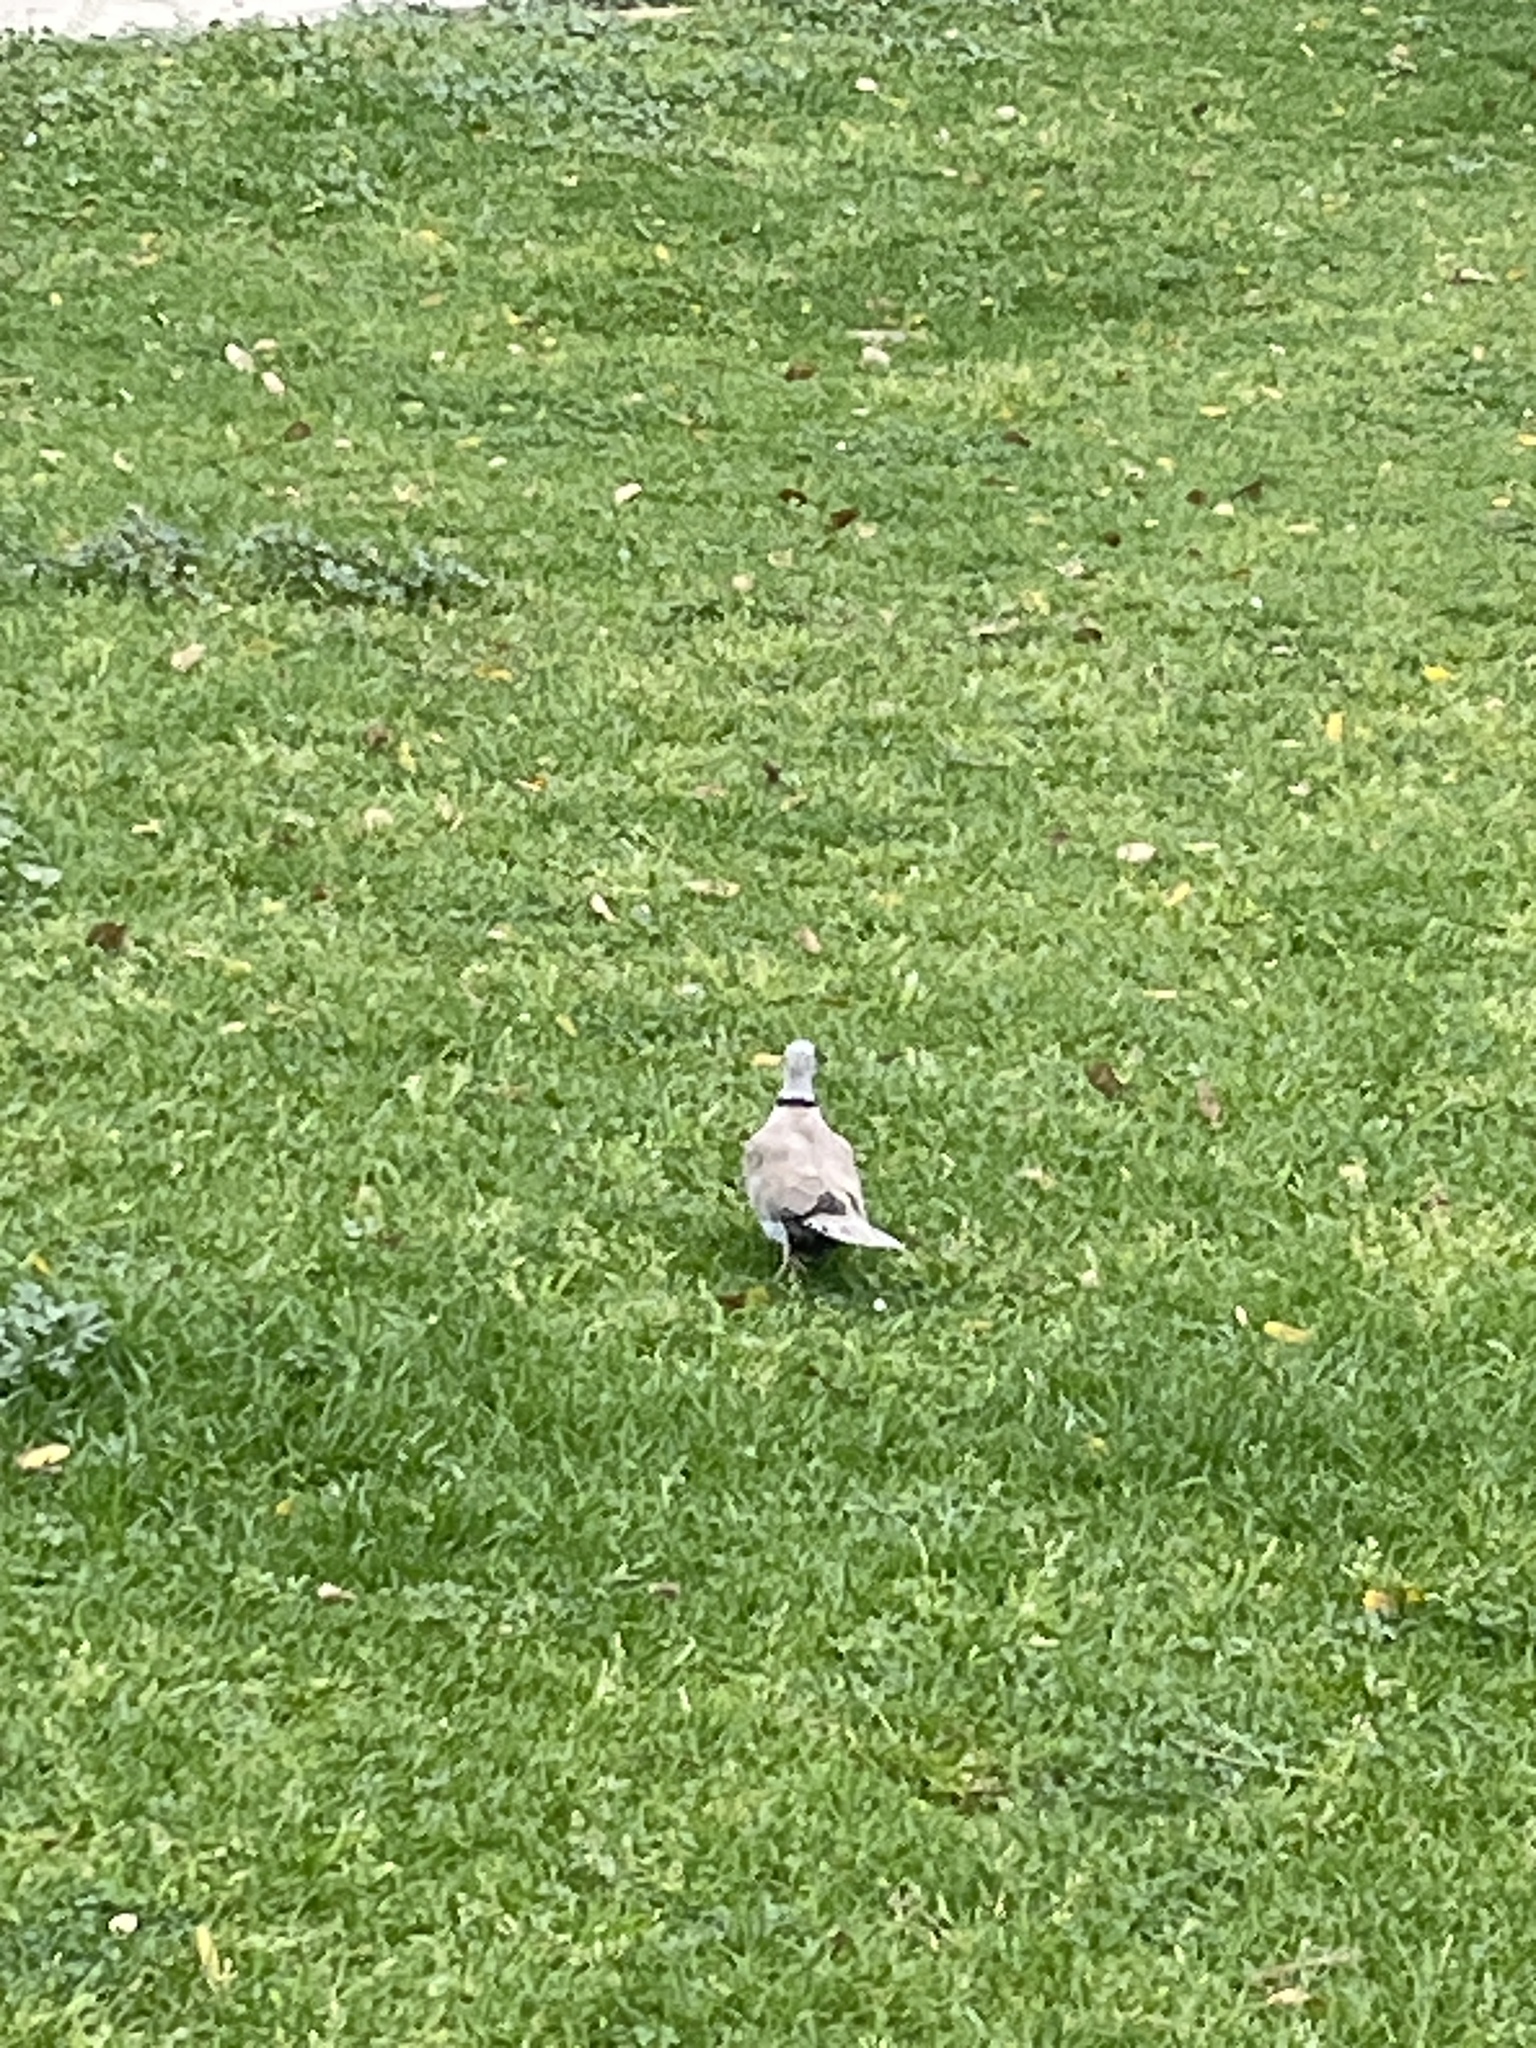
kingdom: Animalia
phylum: Chordata
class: Aves
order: Columbiformes
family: Columbidae
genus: Streptopelia
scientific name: Streptopelia decaocto
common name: Eurasian collared dove
